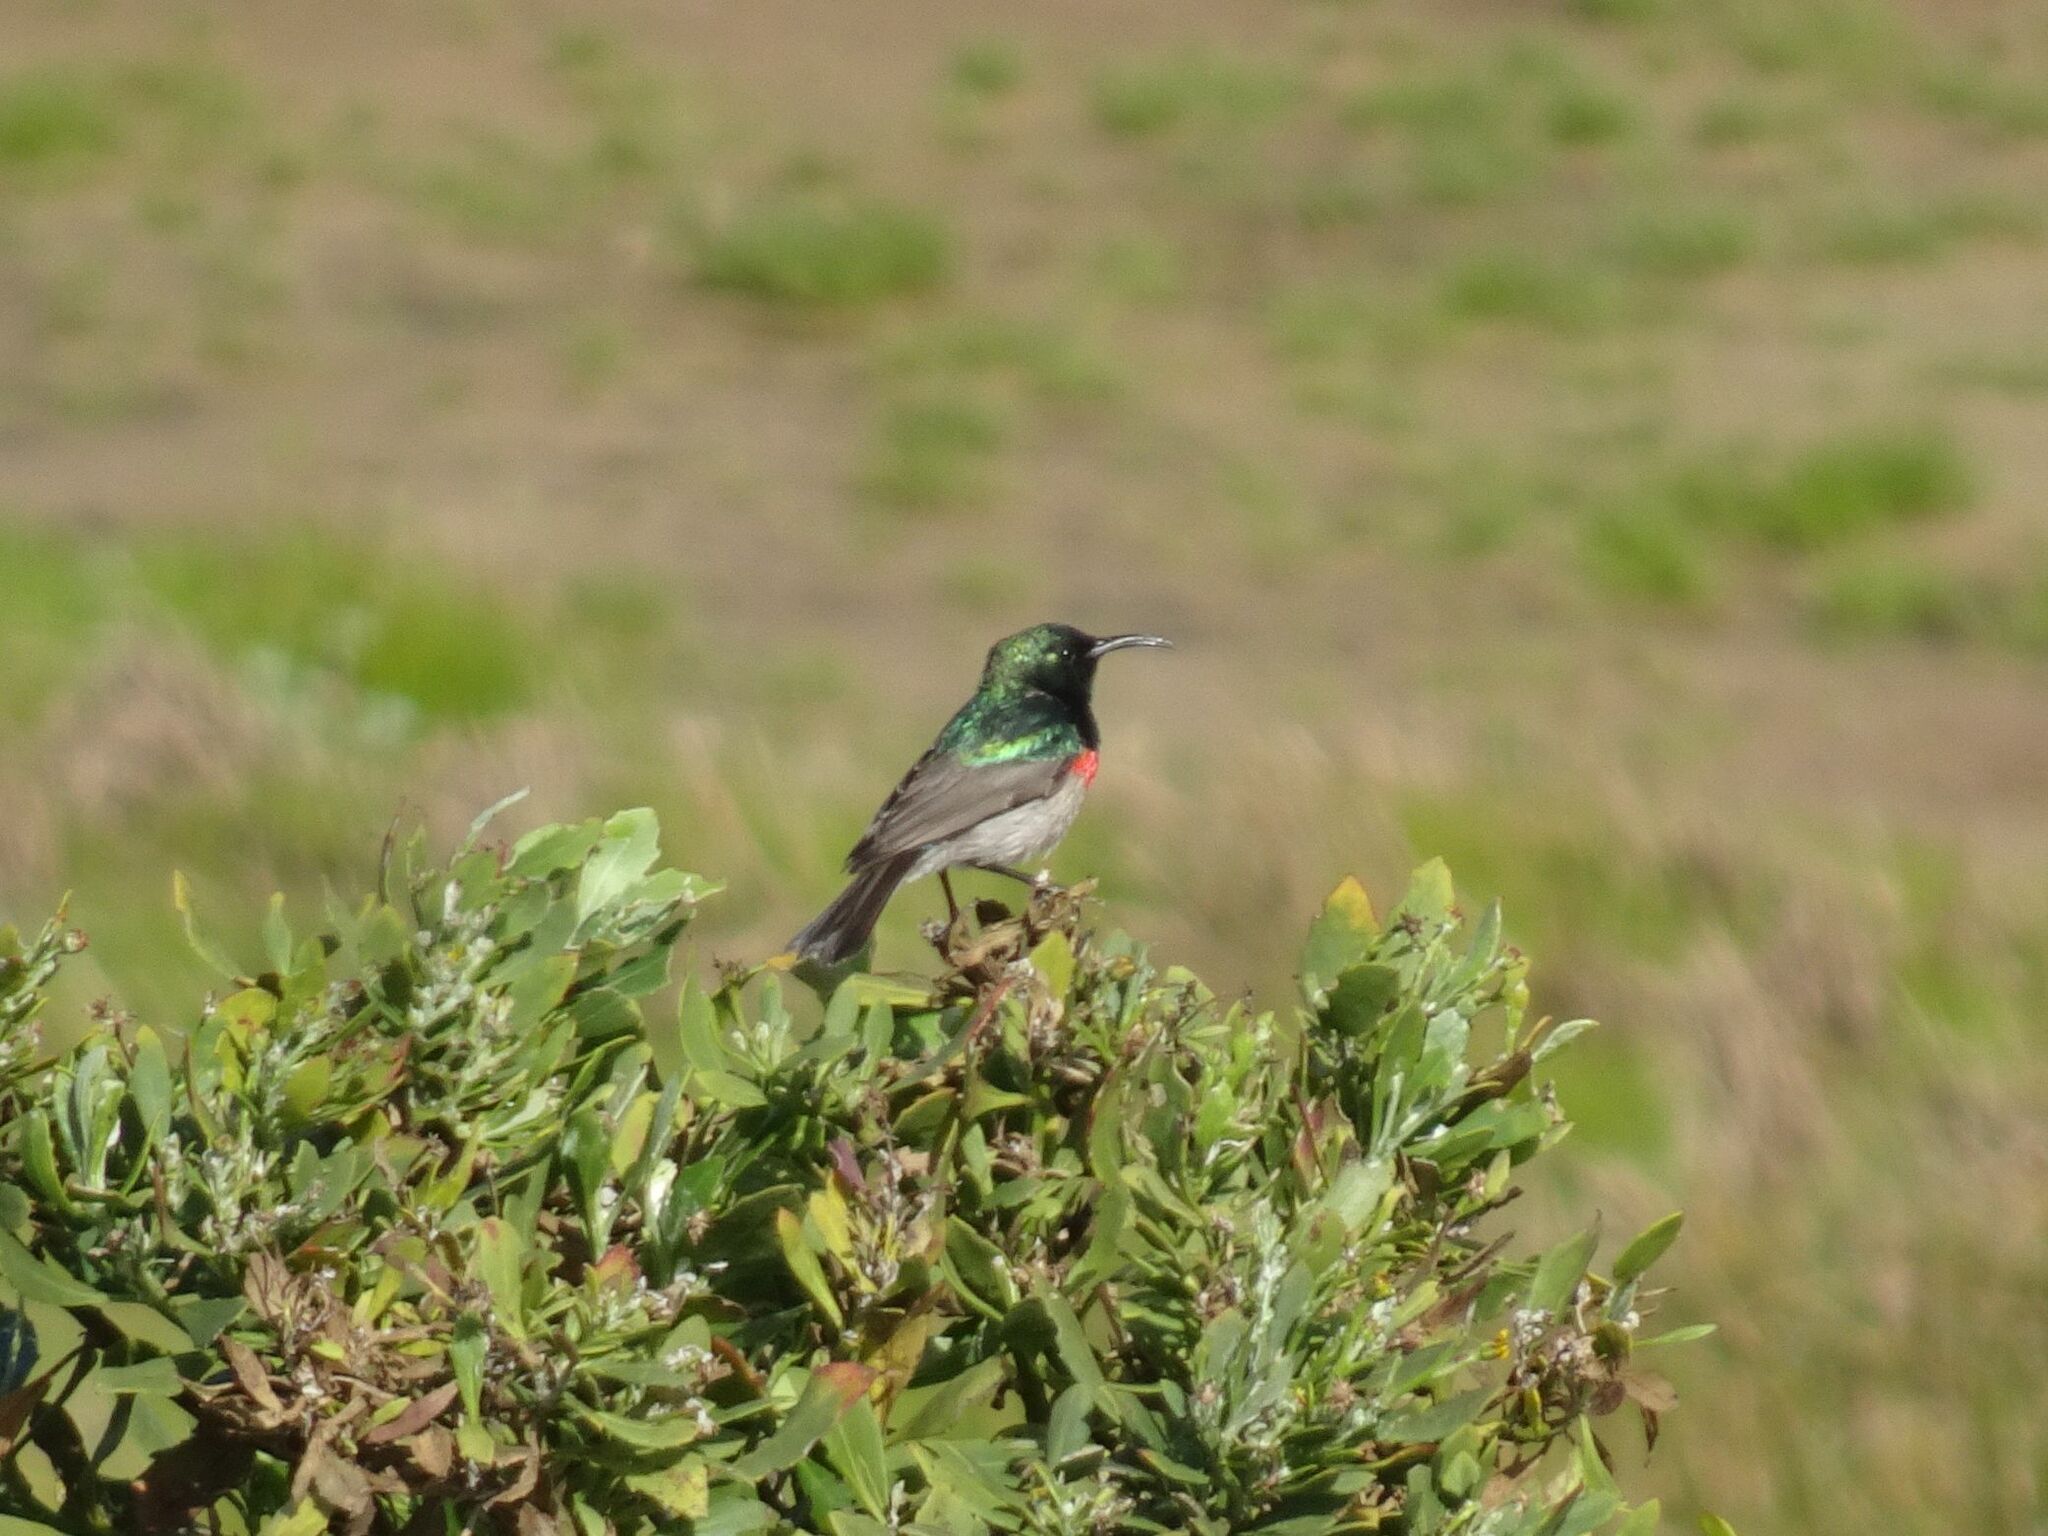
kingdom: Animalia
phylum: Chordata
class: Aves
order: Passeriformes
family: Nectariniidae
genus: Cinnyris
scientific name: Cinnyris chalybeus
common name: Southern double-collared sunbird
